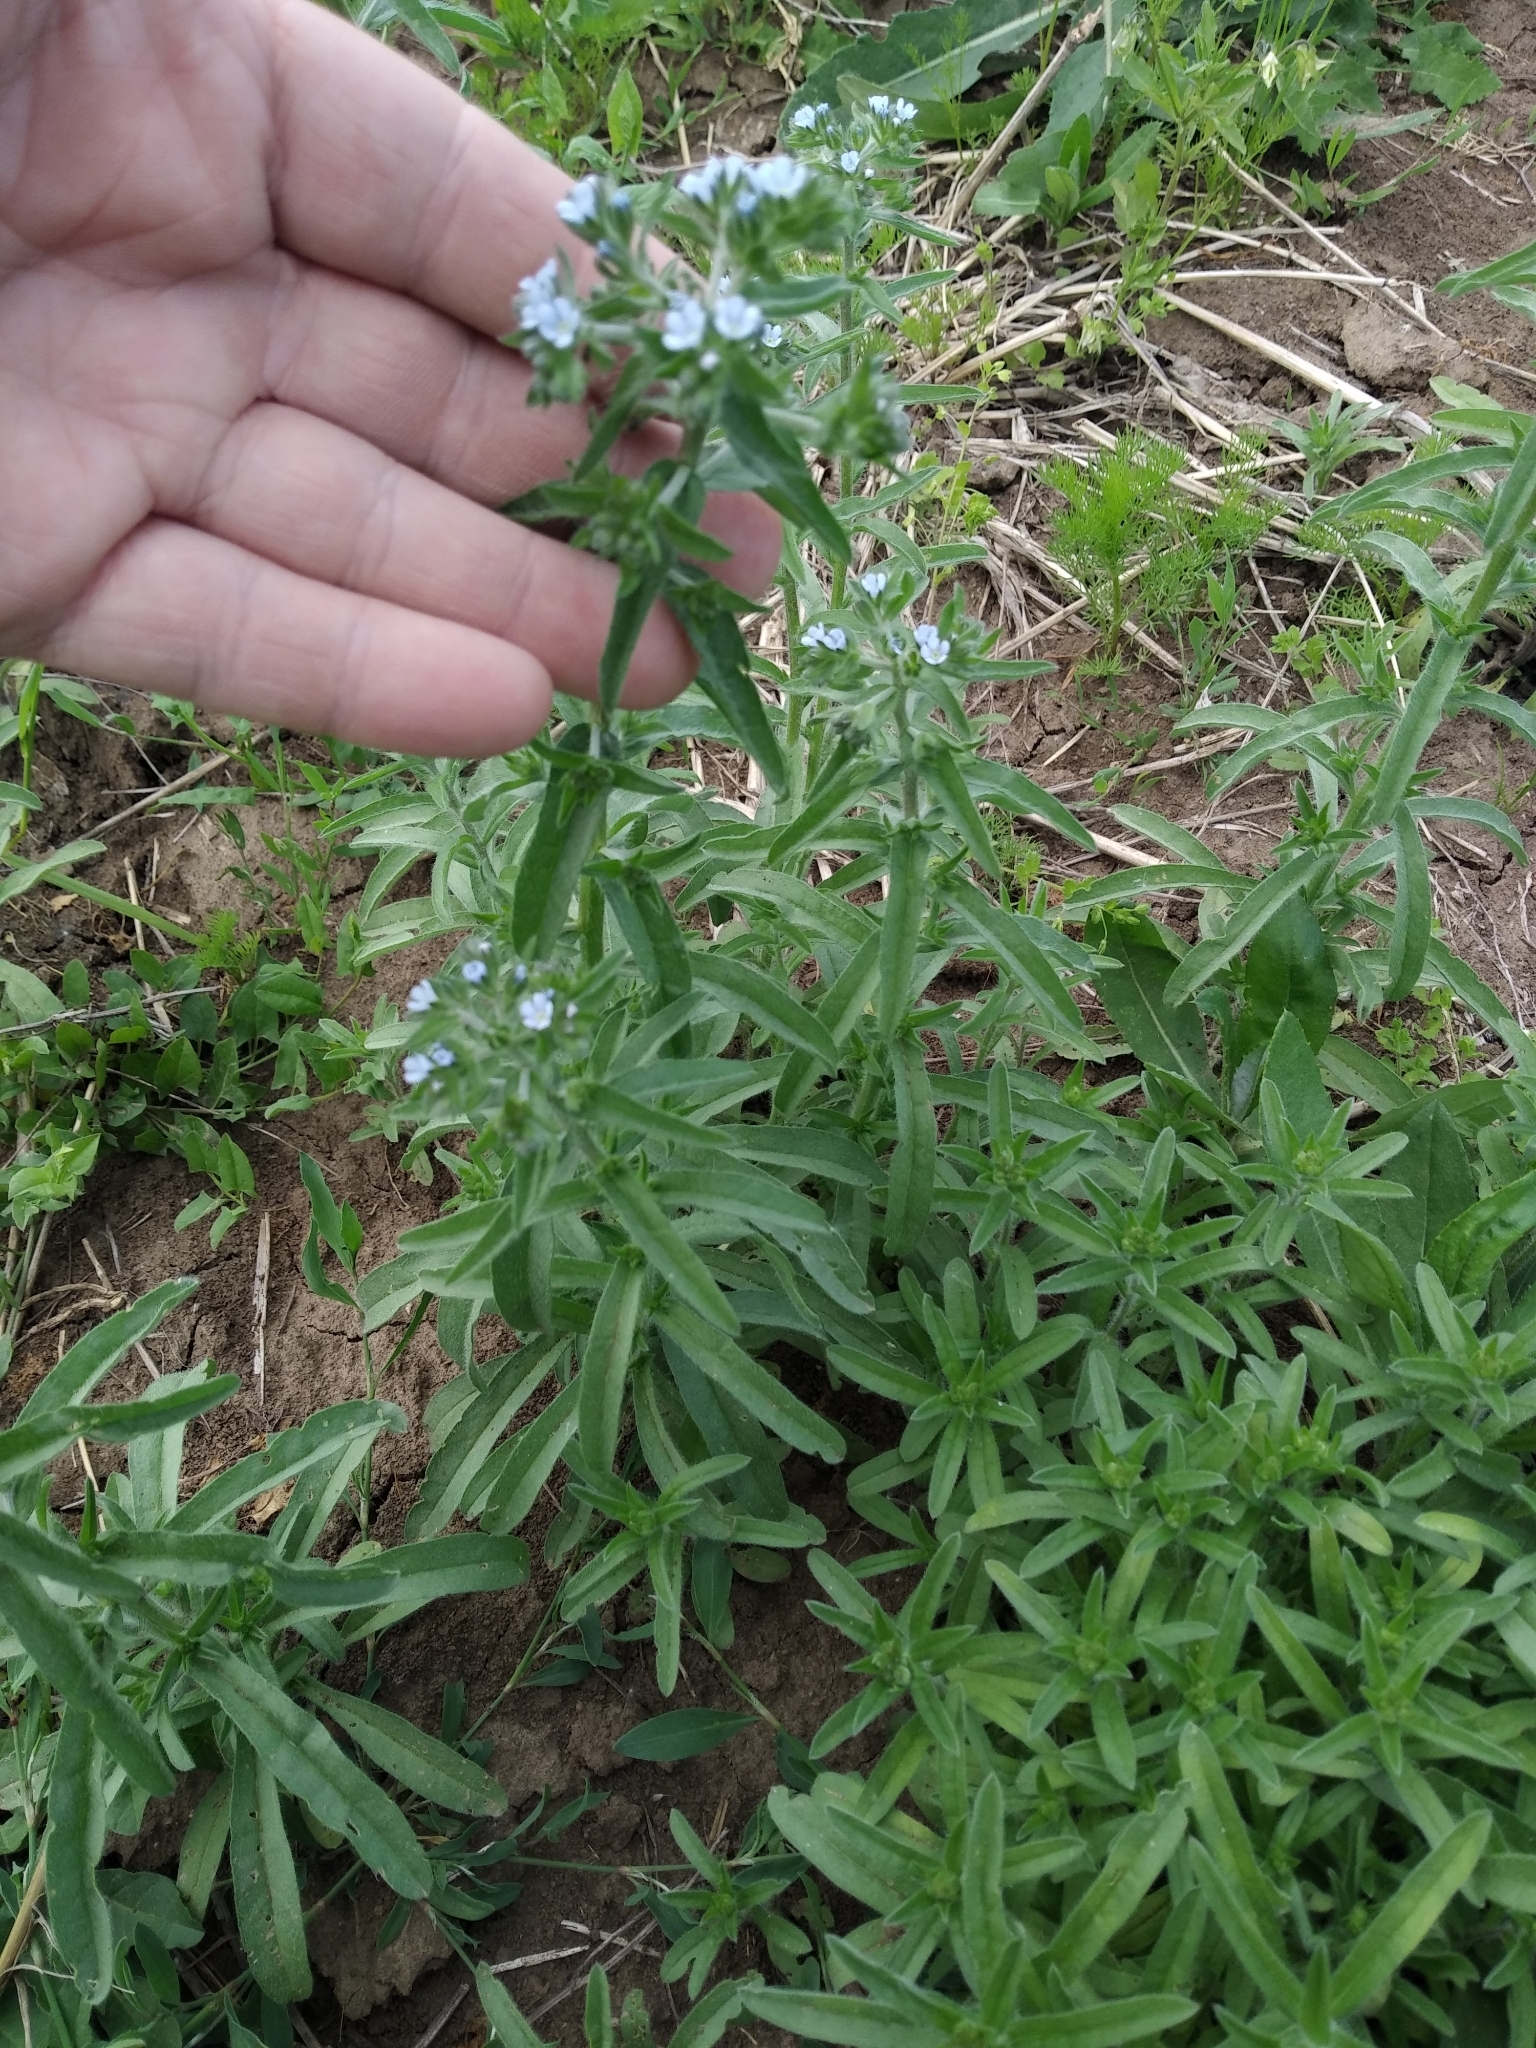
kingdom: Plantae
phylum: Tracheophyta
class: Magnoliopsida
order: Boraginales
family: Boraginaceae
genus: Lappula
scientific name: Lappula squarrosa
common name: European stickseed
